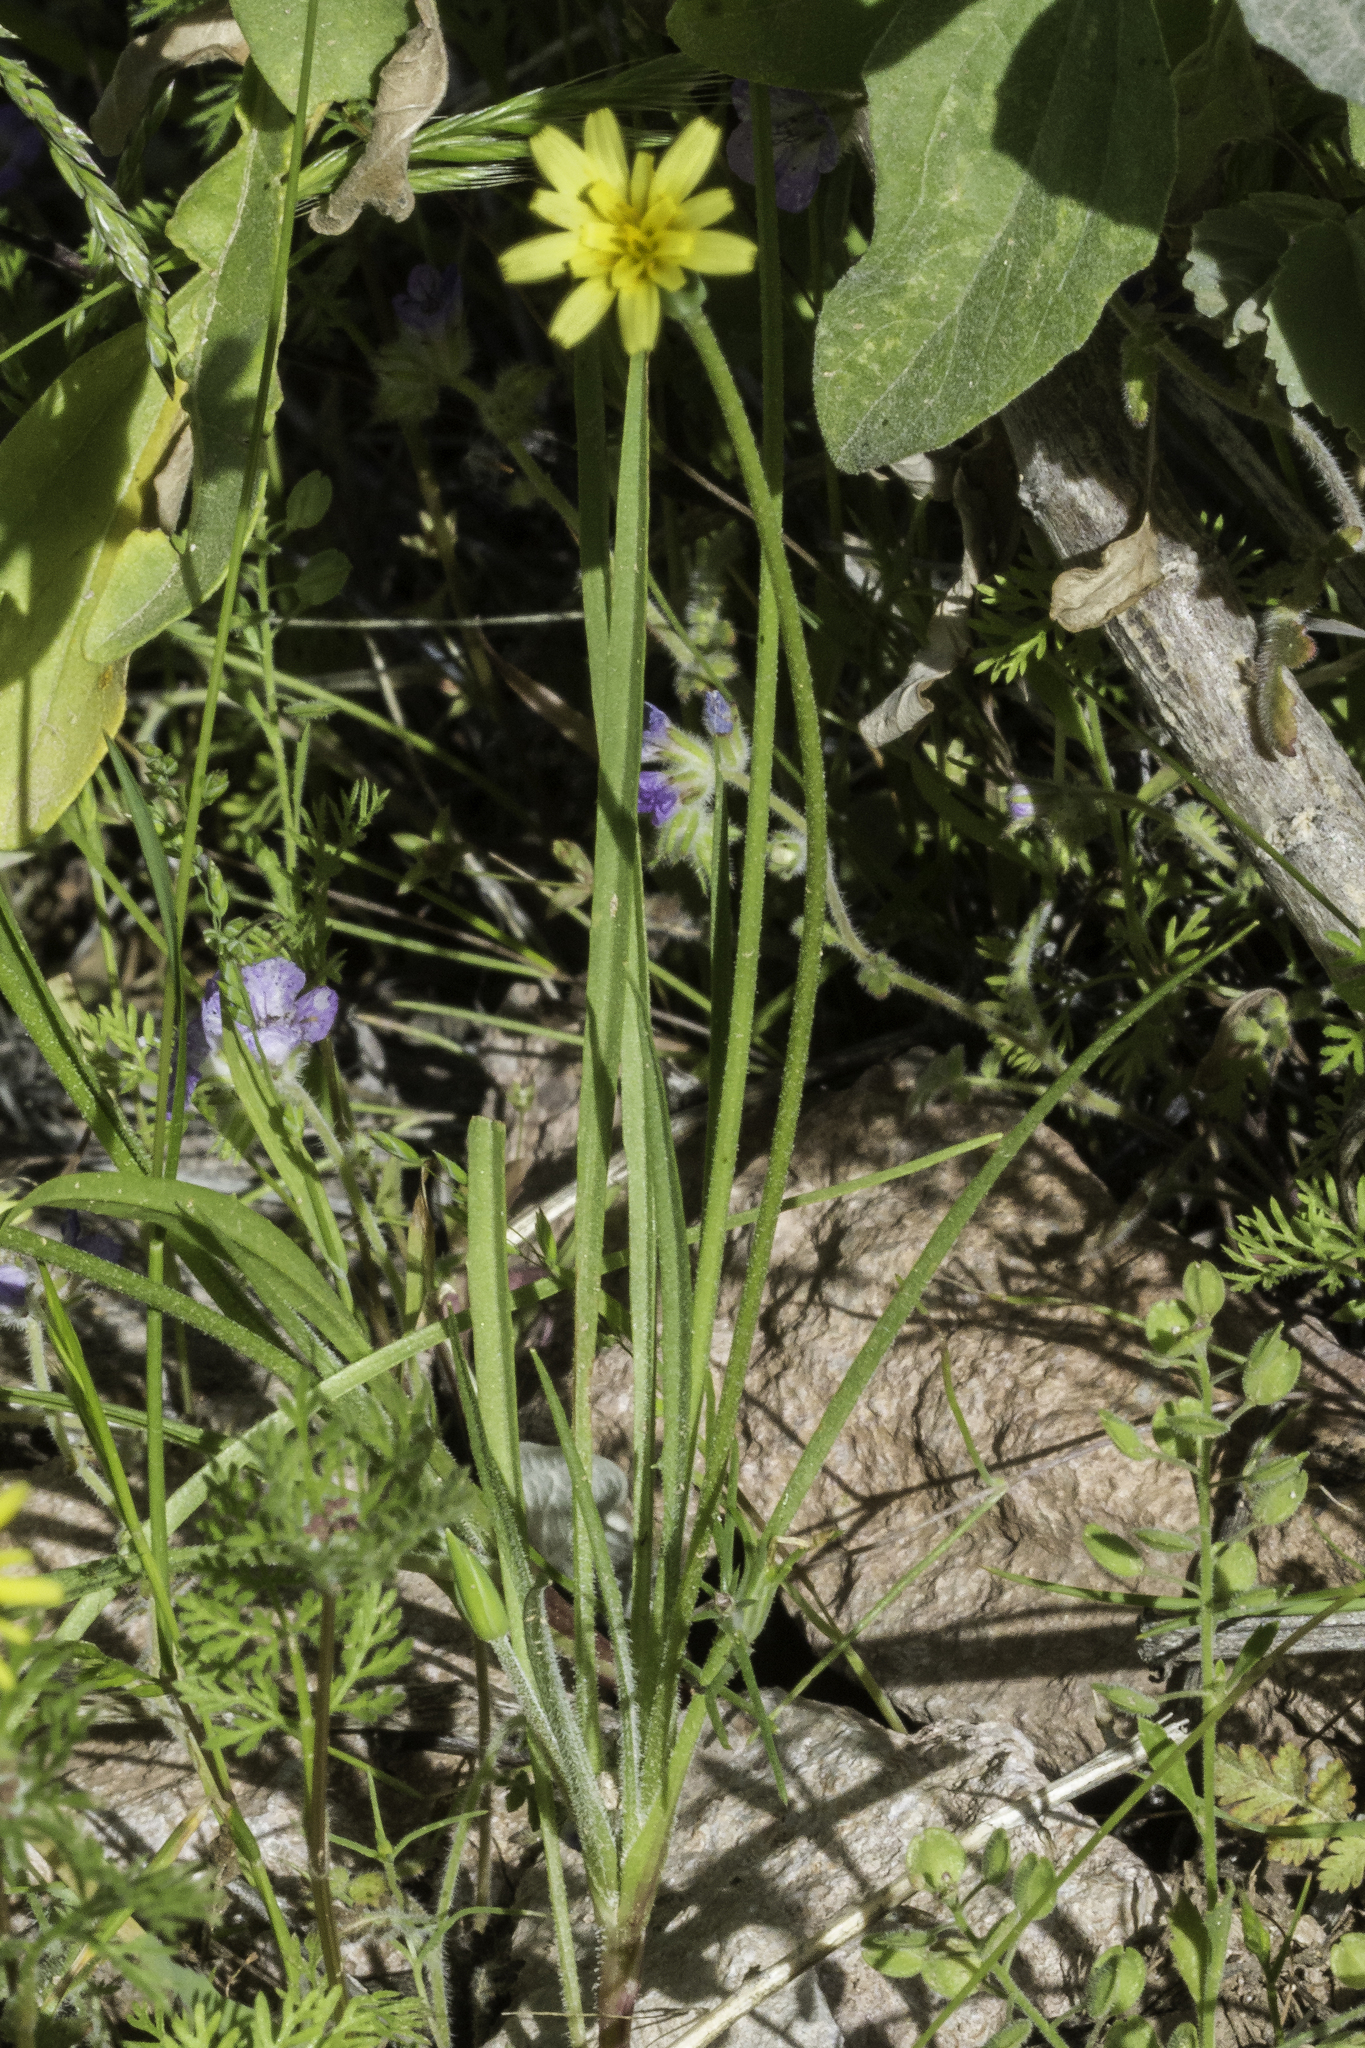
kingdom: Plantae
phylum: Tracheophyta
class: Magnoliopsida
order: Asterales
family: Asteraceae
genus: Microseris
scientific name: Microseris lindleyi
